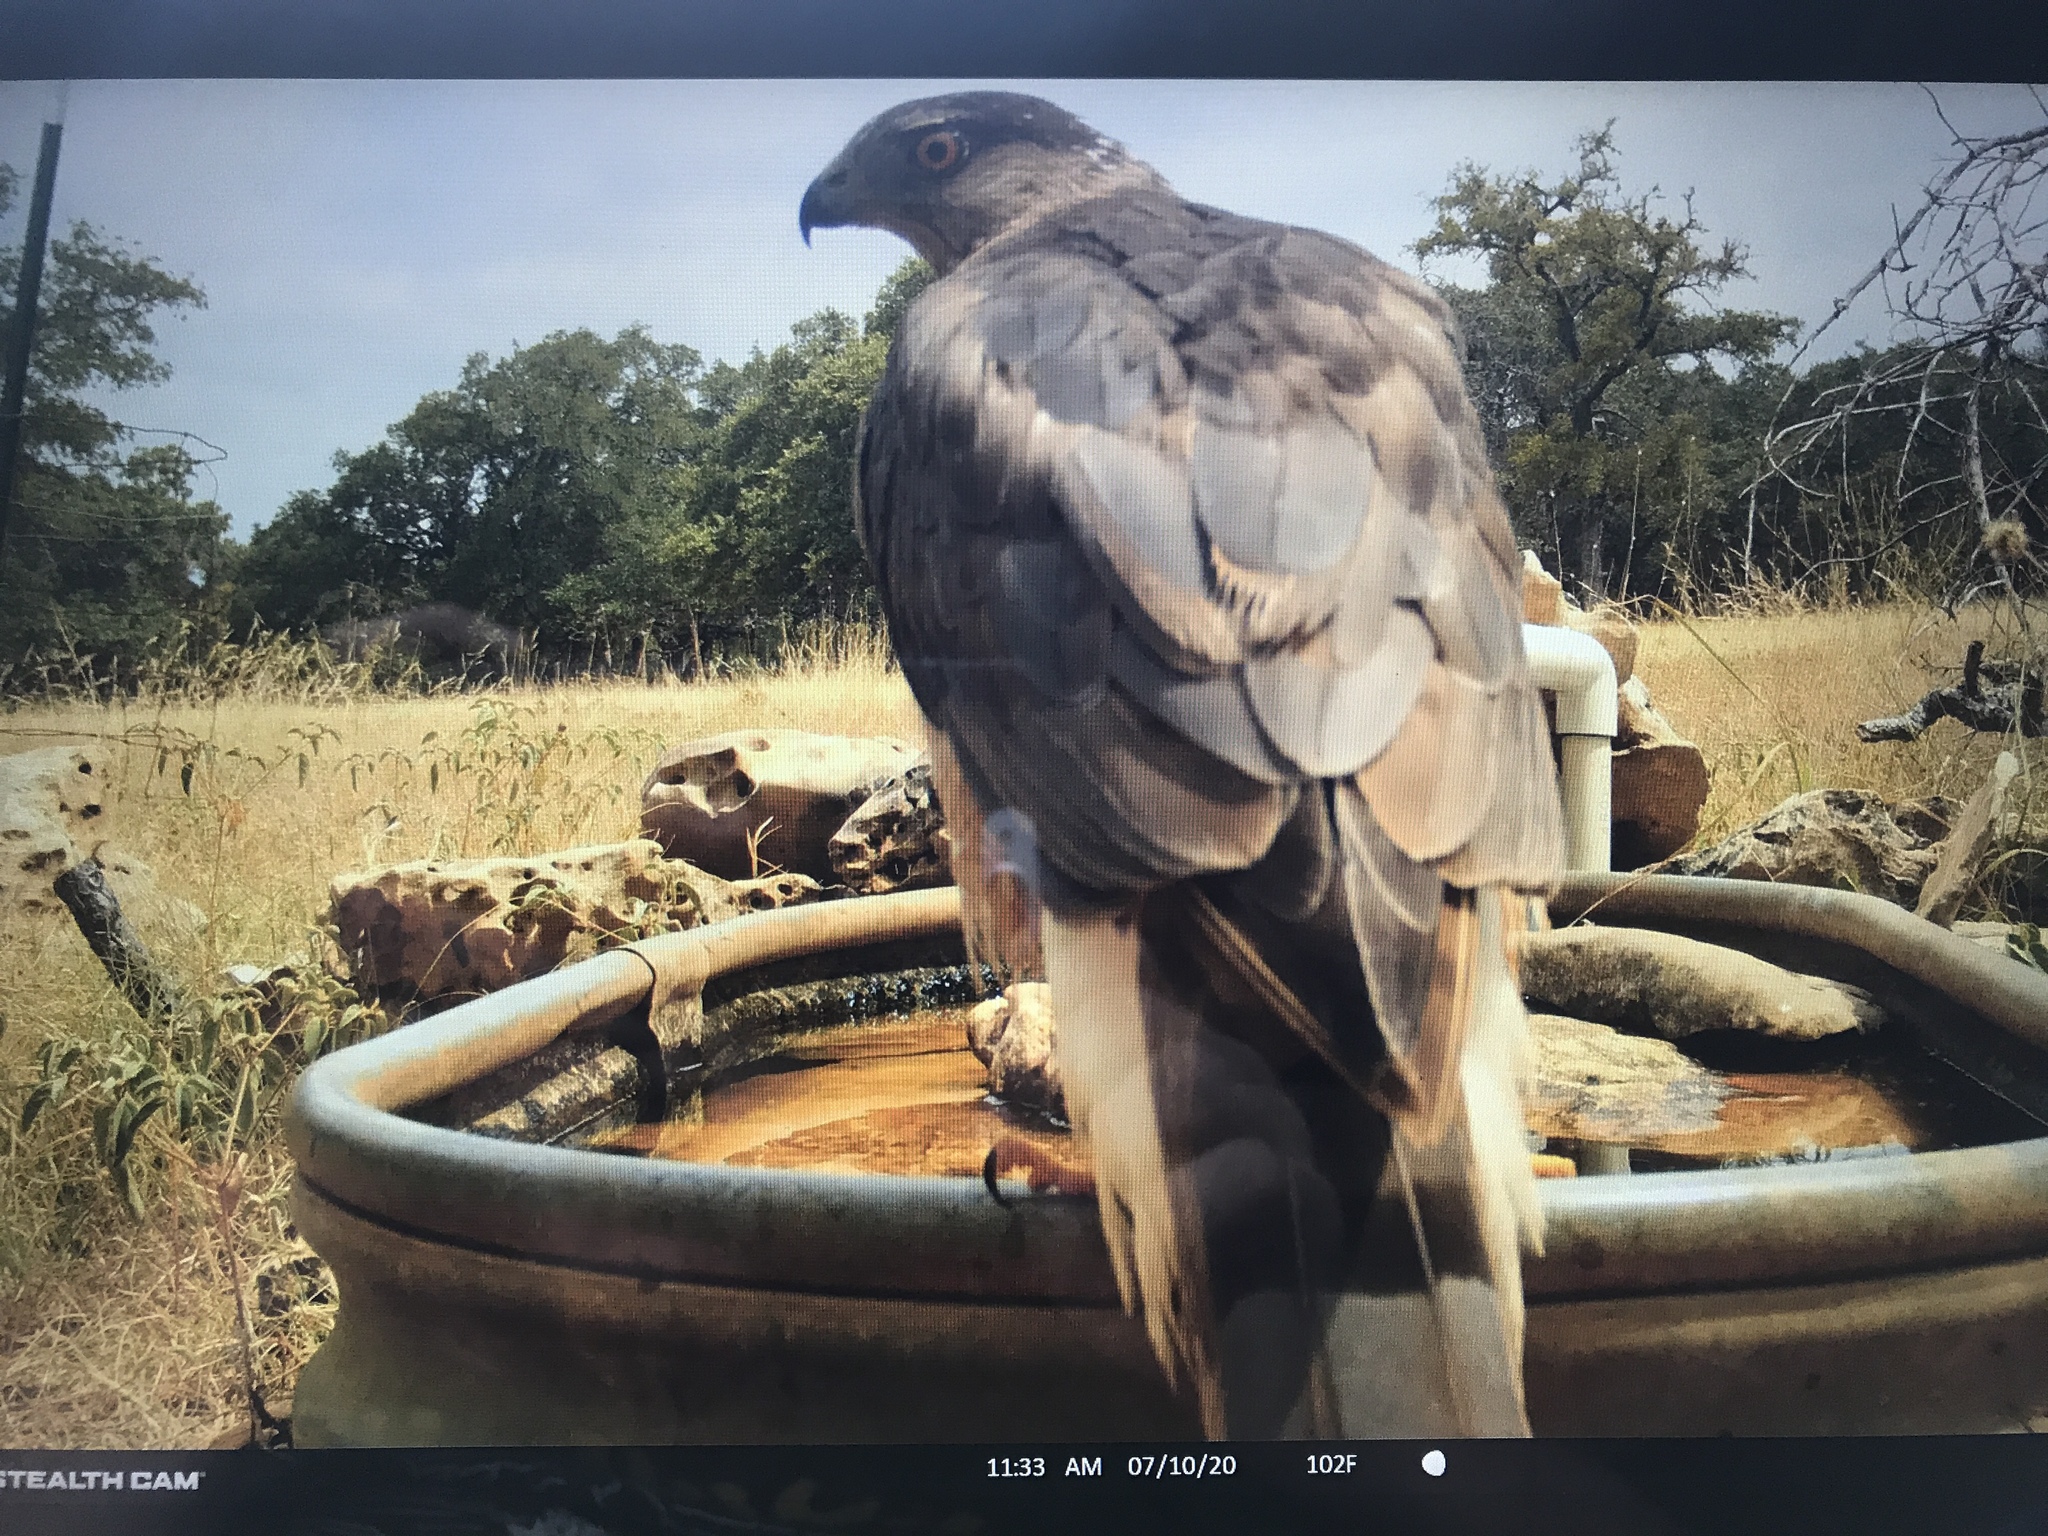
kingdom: Animalia
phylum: Chordata
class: Aves
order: Accipitriformes
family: Accipitridae
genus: Accipiter
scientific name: Accipiter cooperii
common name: Cooper's hawk
